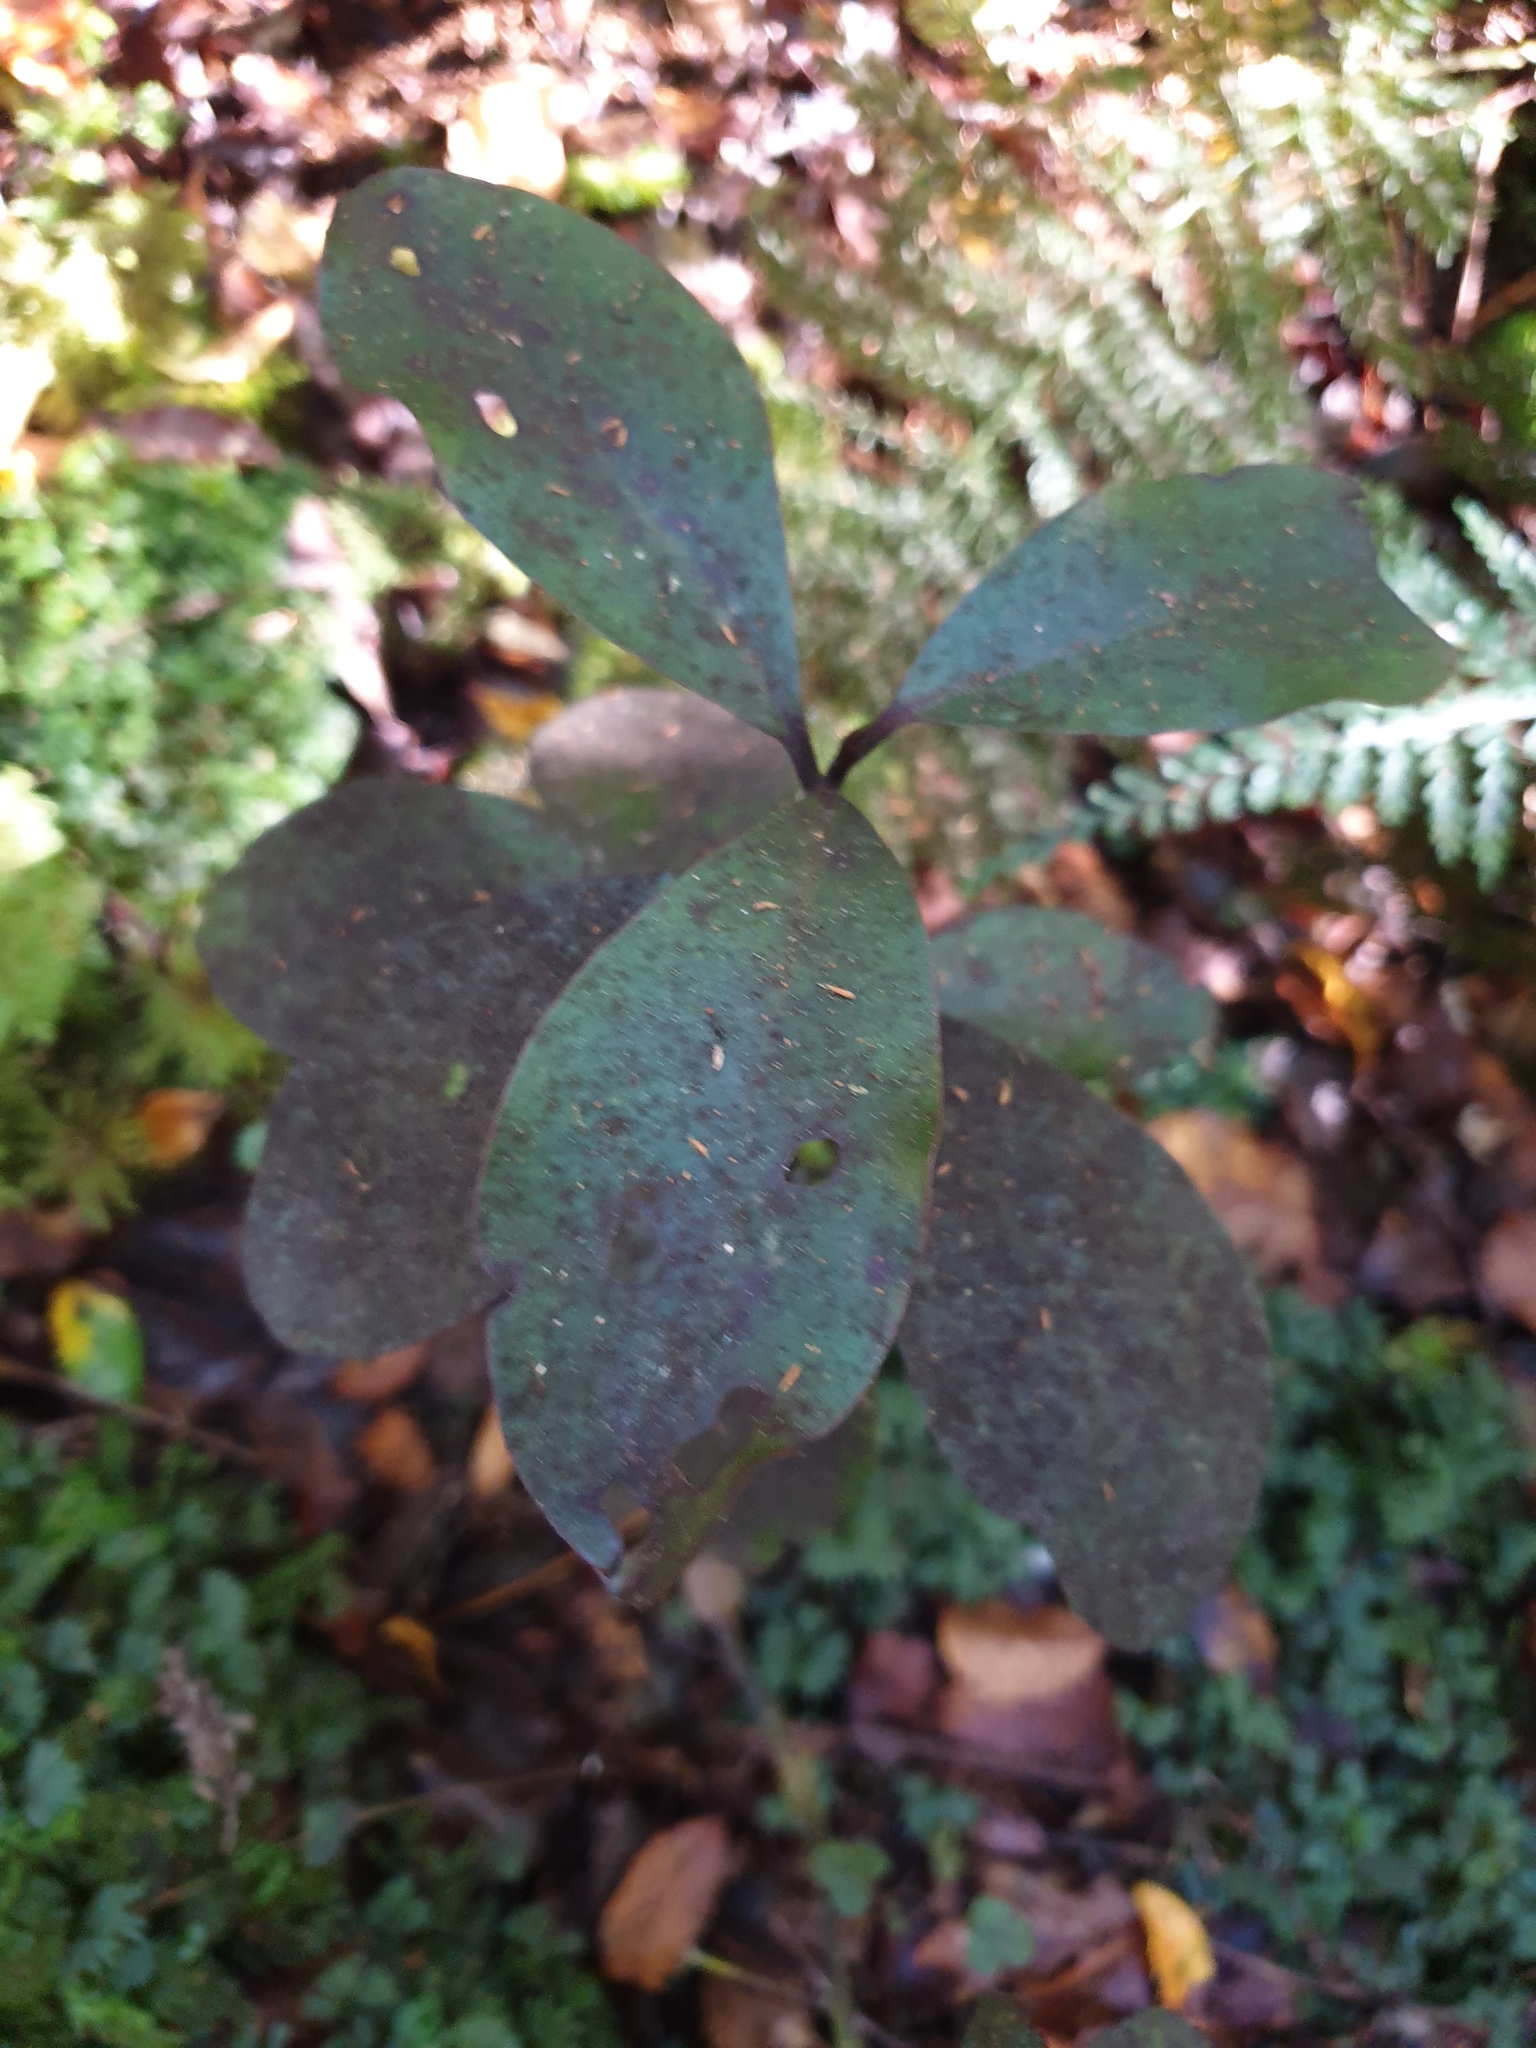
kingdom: Plantae
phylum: Tracheophyta
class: Magnoliopsida
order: Canellales
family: Winteraceae
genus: Pseudowintera
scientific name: Pseudowintera colorata
